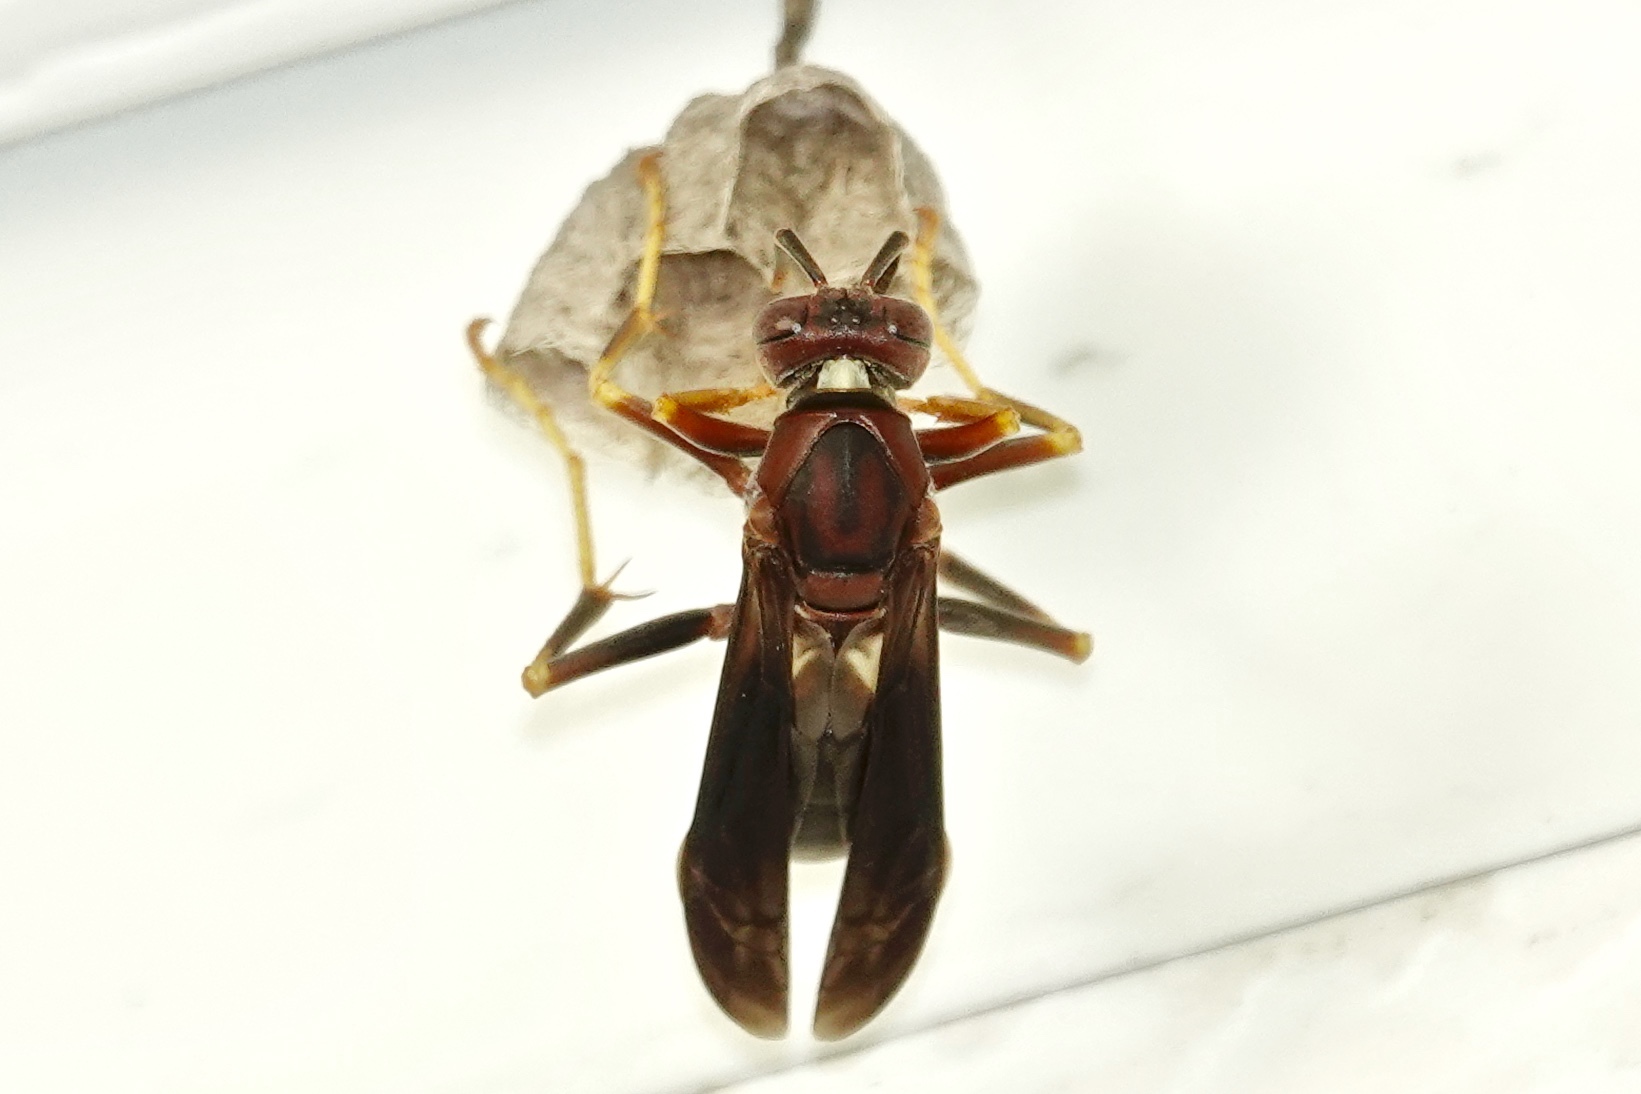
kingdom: Animalia
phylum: Arthropoda
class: Insecta
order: Hymenoptera
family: Eumenidae
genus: Polistes
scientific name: Polistes metricus
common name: Metric paper wasp
